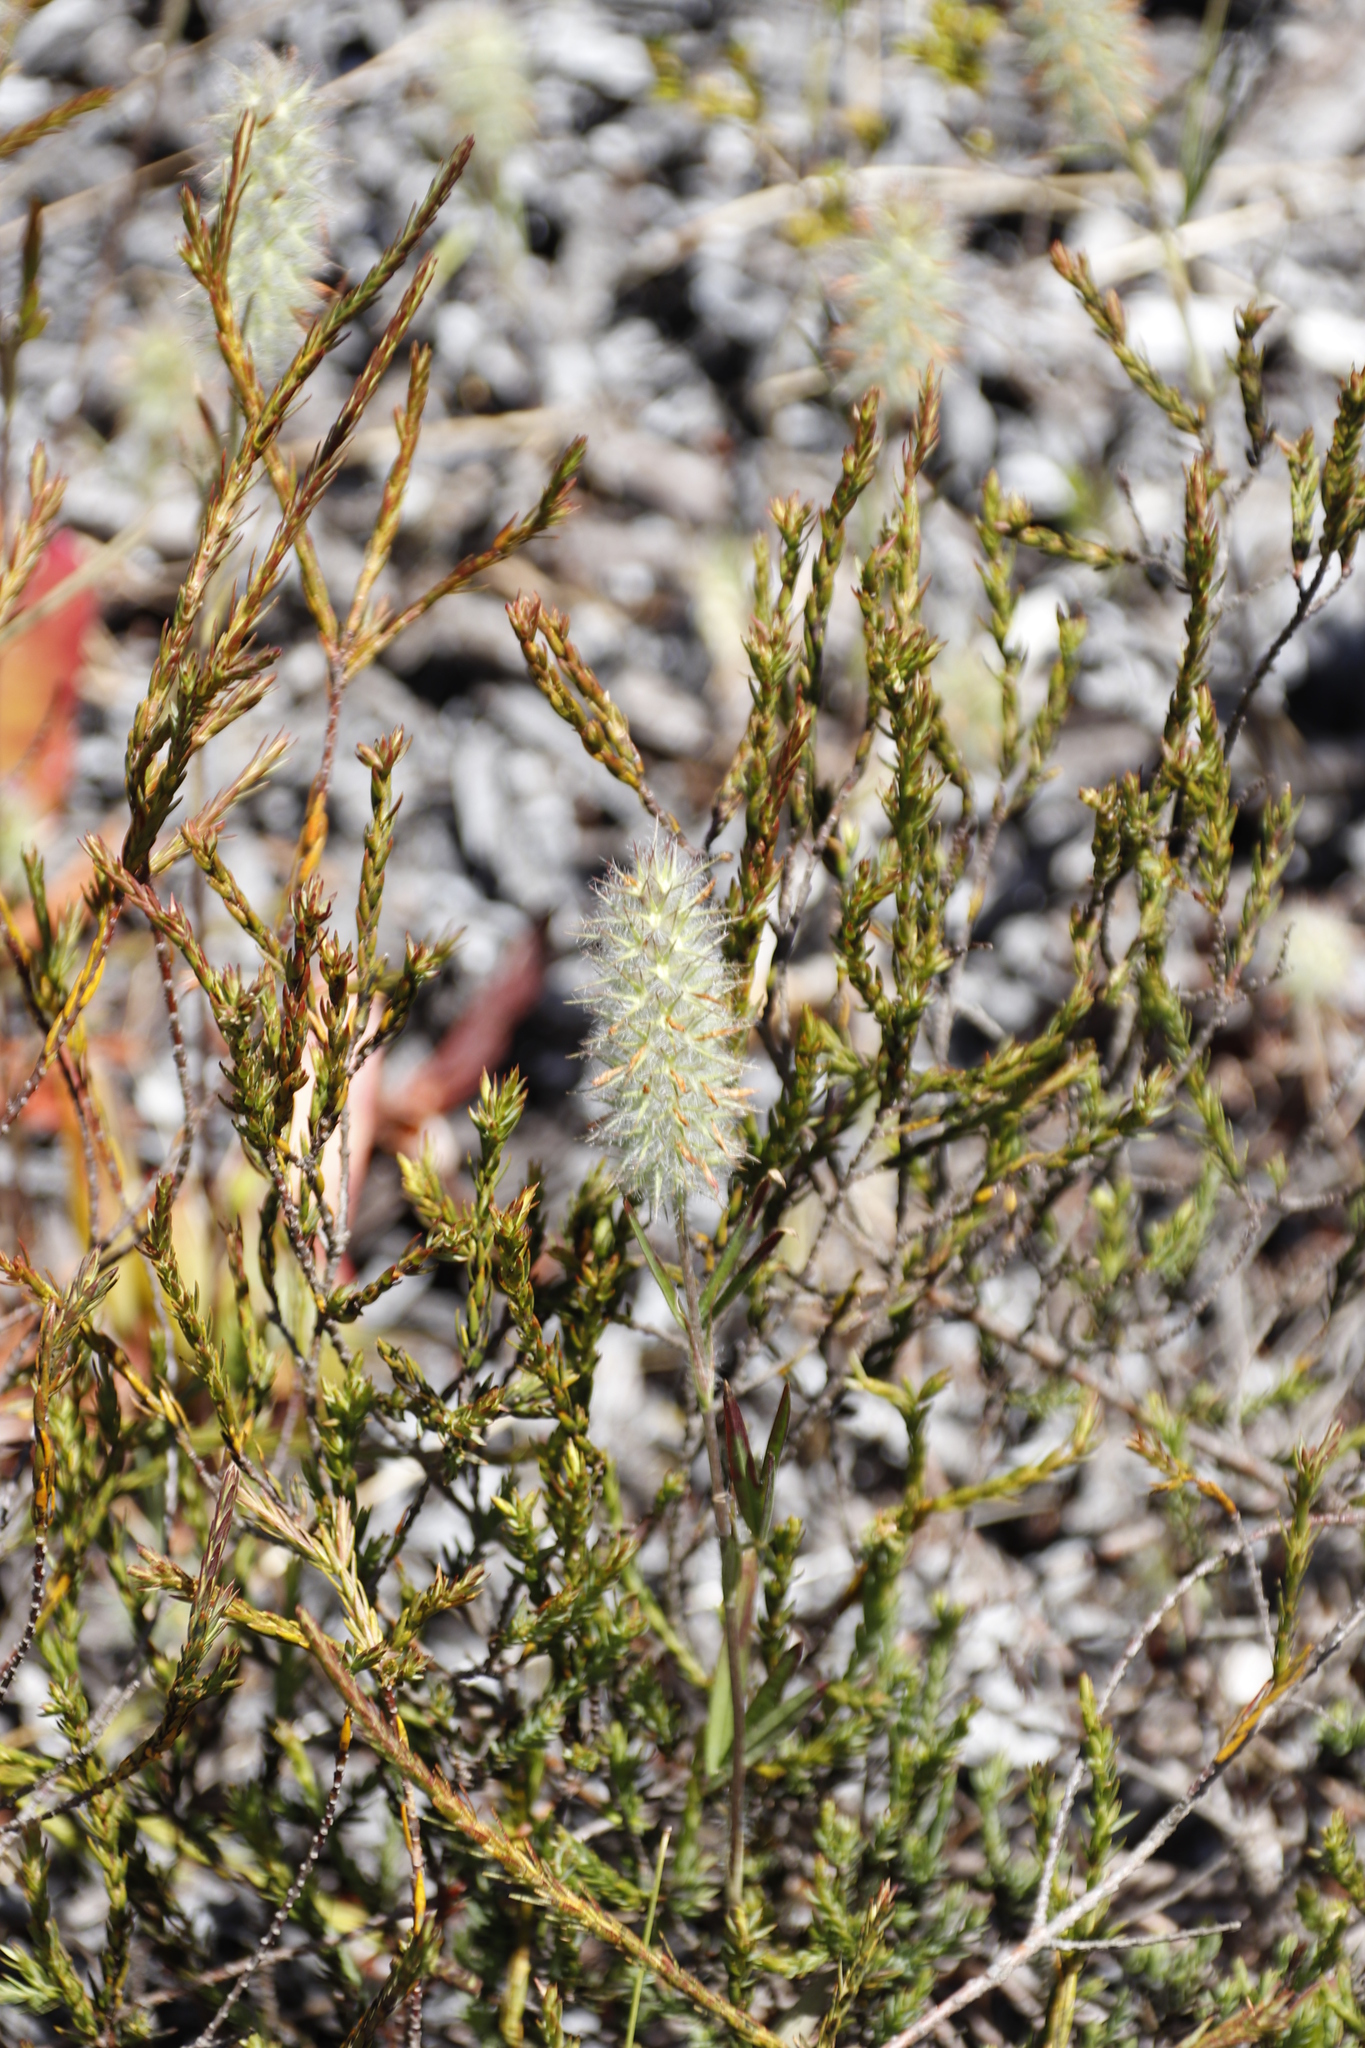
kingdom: Plantae
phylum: Tracheophyta
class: Magnoliopsida
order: Fabales
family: Fabaceae
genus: Trifolium
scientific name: Trifolium angustifolium
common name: Narrow clover
